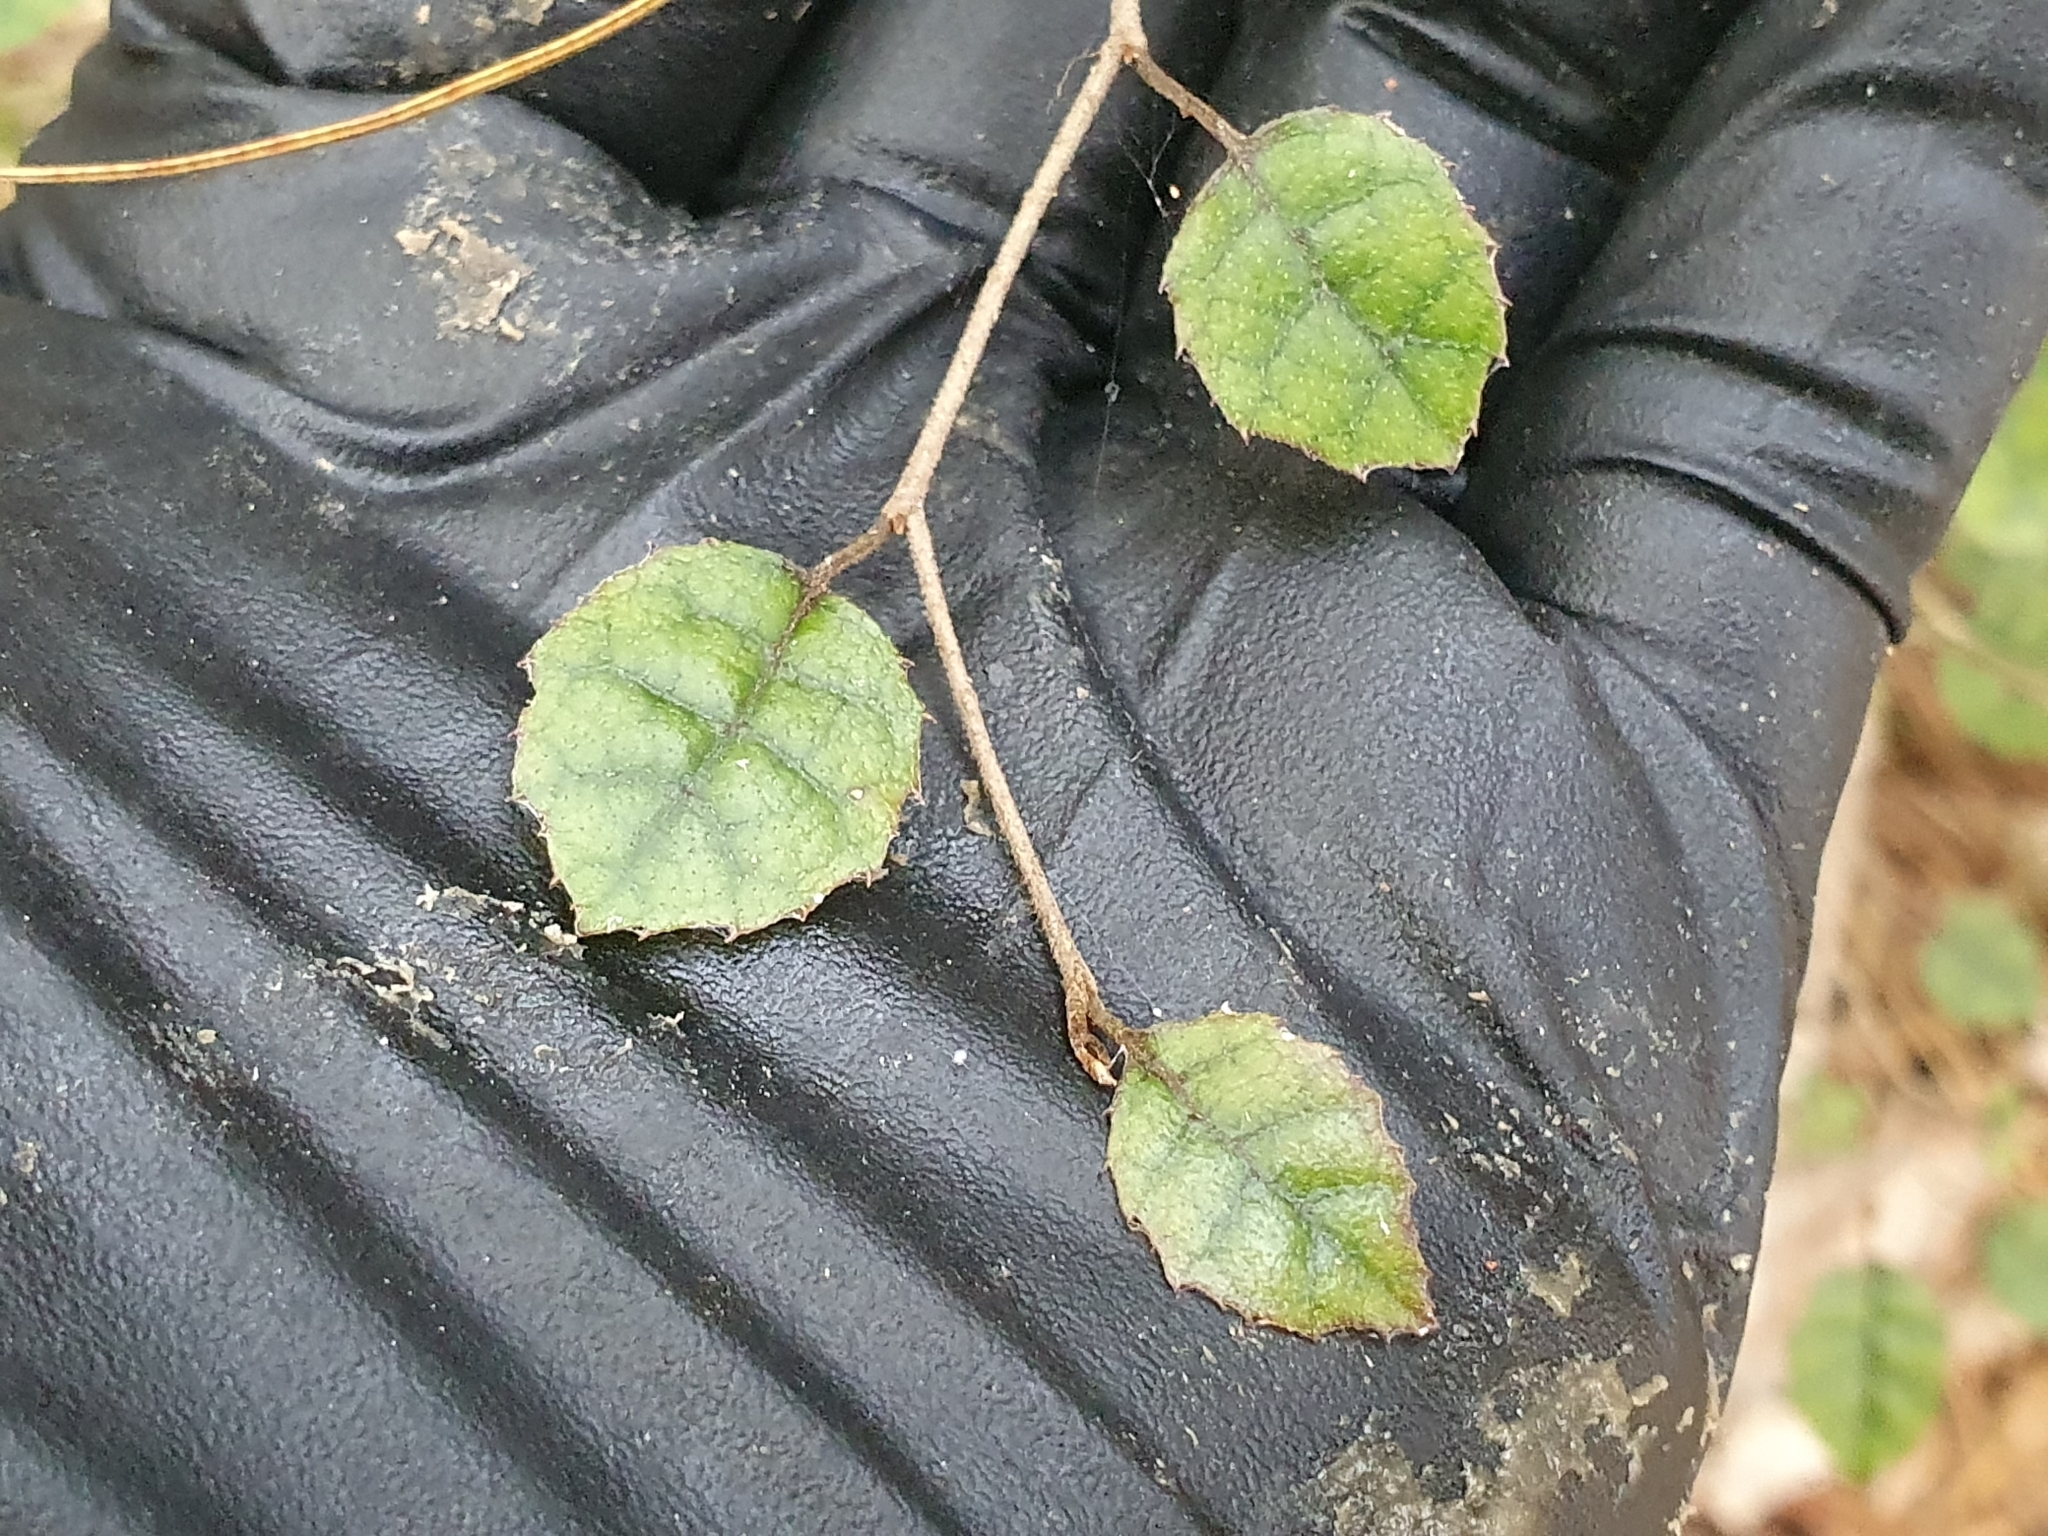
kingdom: Plantae
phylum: Tracheophyta
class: Magnoliopsida
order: Asterales
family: Rousseaceae
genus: Carpodetus
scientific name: Carpodetus serratus
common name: White mapau
